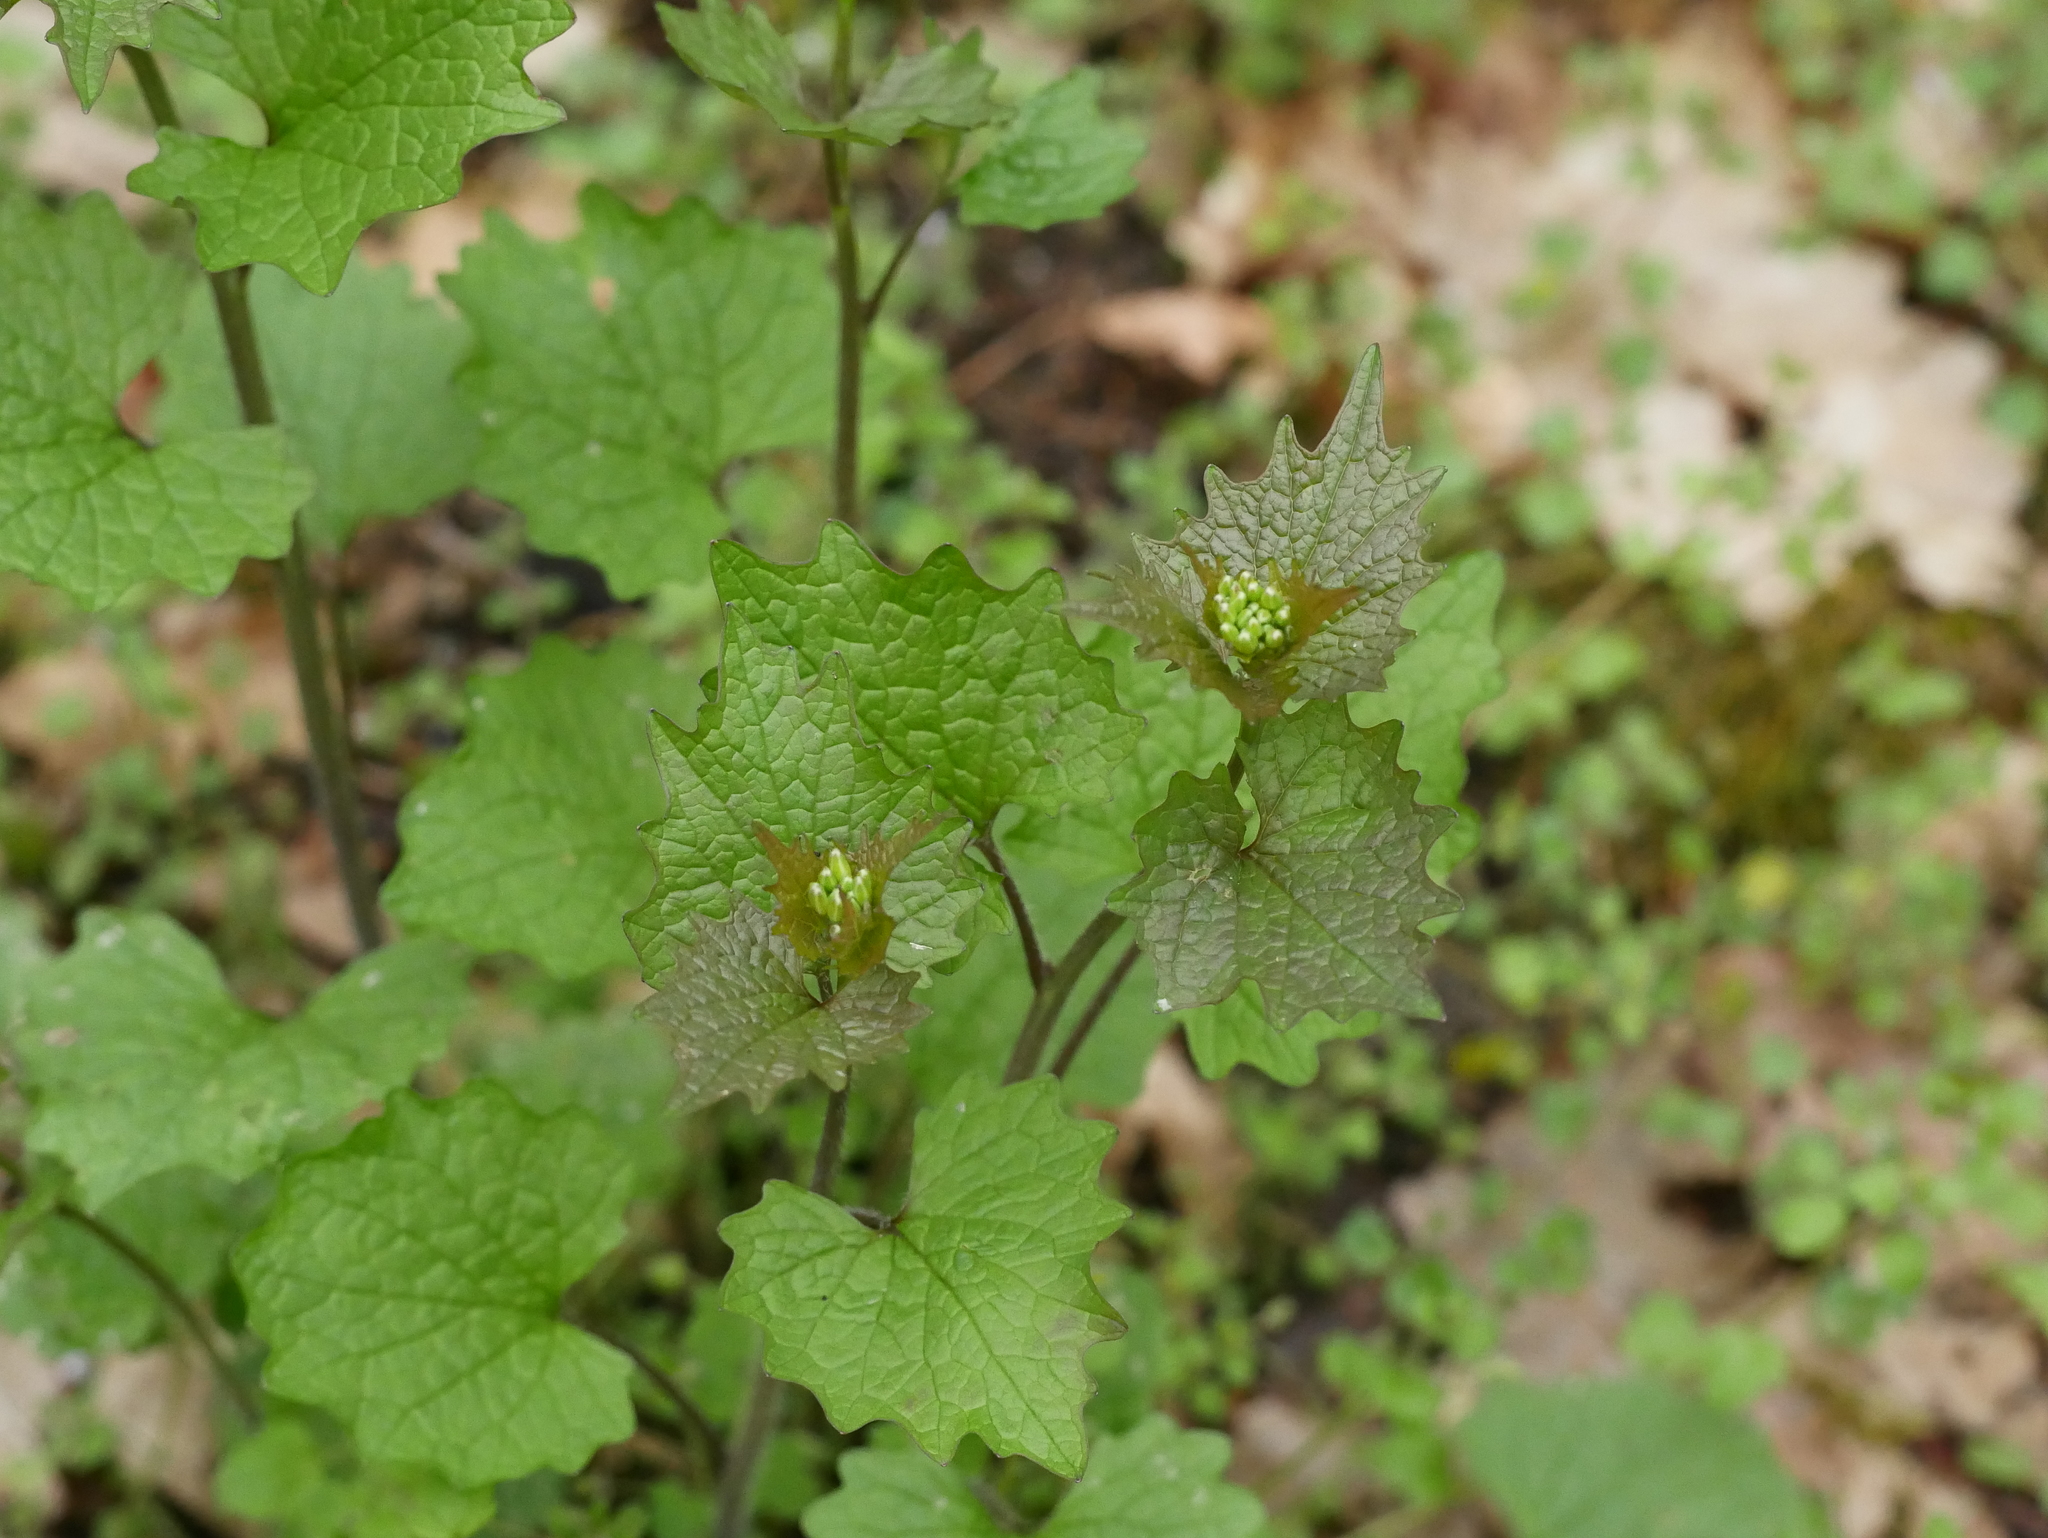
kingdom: Plantae
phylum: Tracheophyta
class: Magnoliopsida
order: Brassicales
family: Brassicaceae
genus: Alliaria
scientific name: Alliaria petiolata
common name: Garlic mustard
